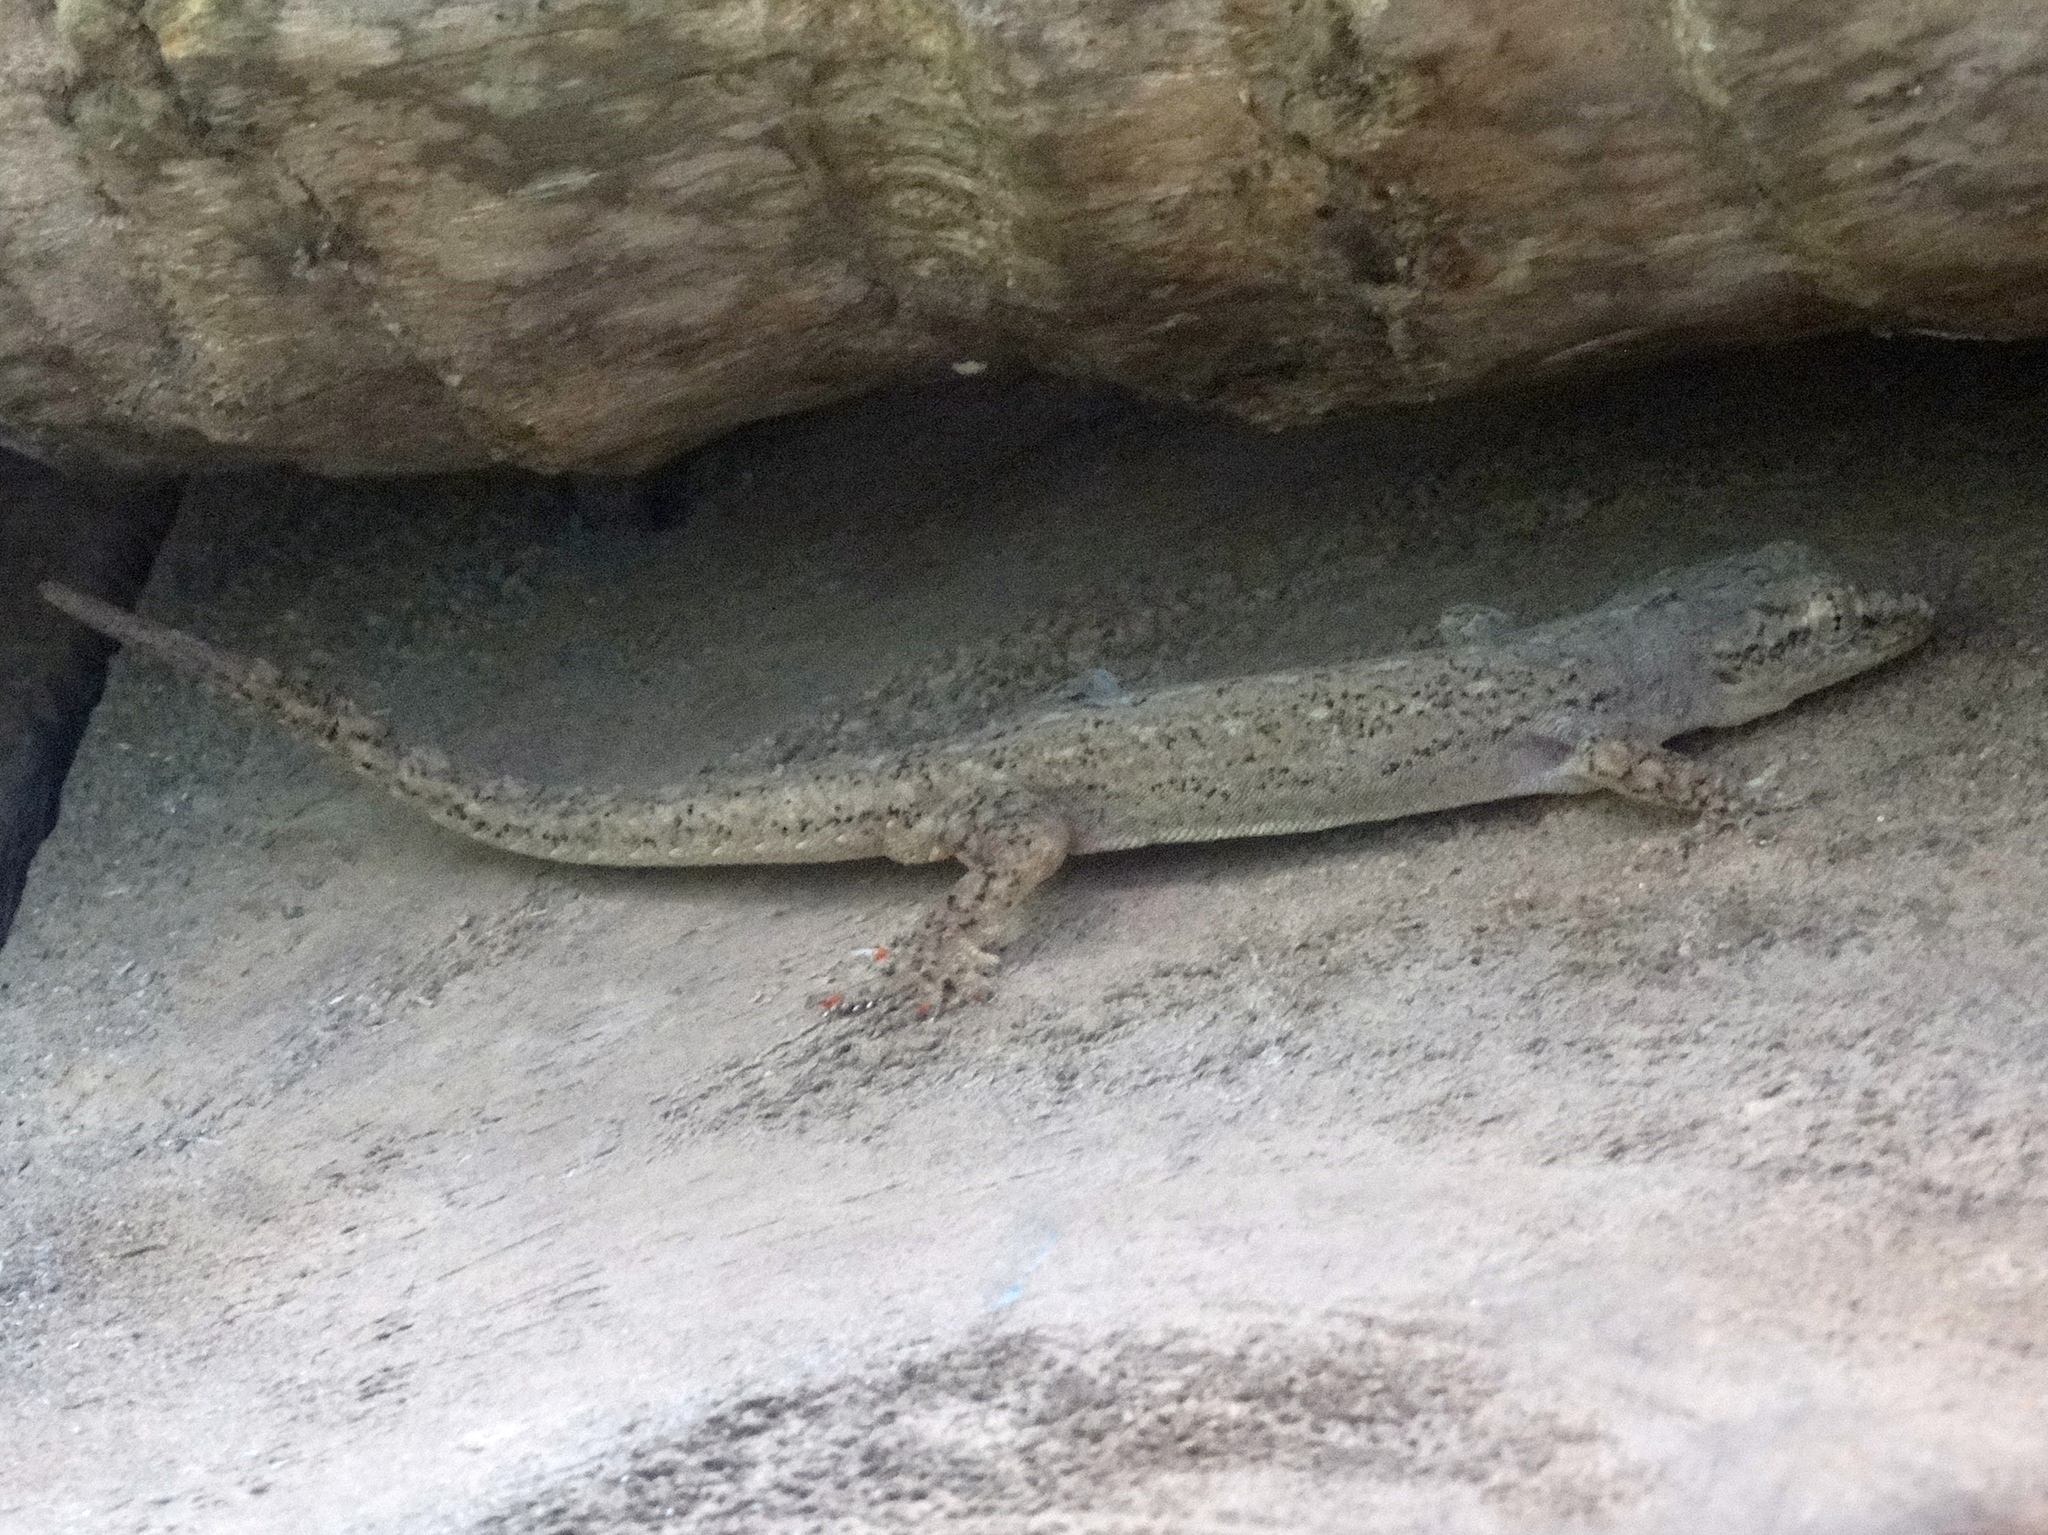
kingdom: Animalia
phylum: Chordata
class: Squamata
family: Gekkonidae
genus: Hemidactylus
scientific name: Hemidactylus frenatus
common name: Common house gecko
